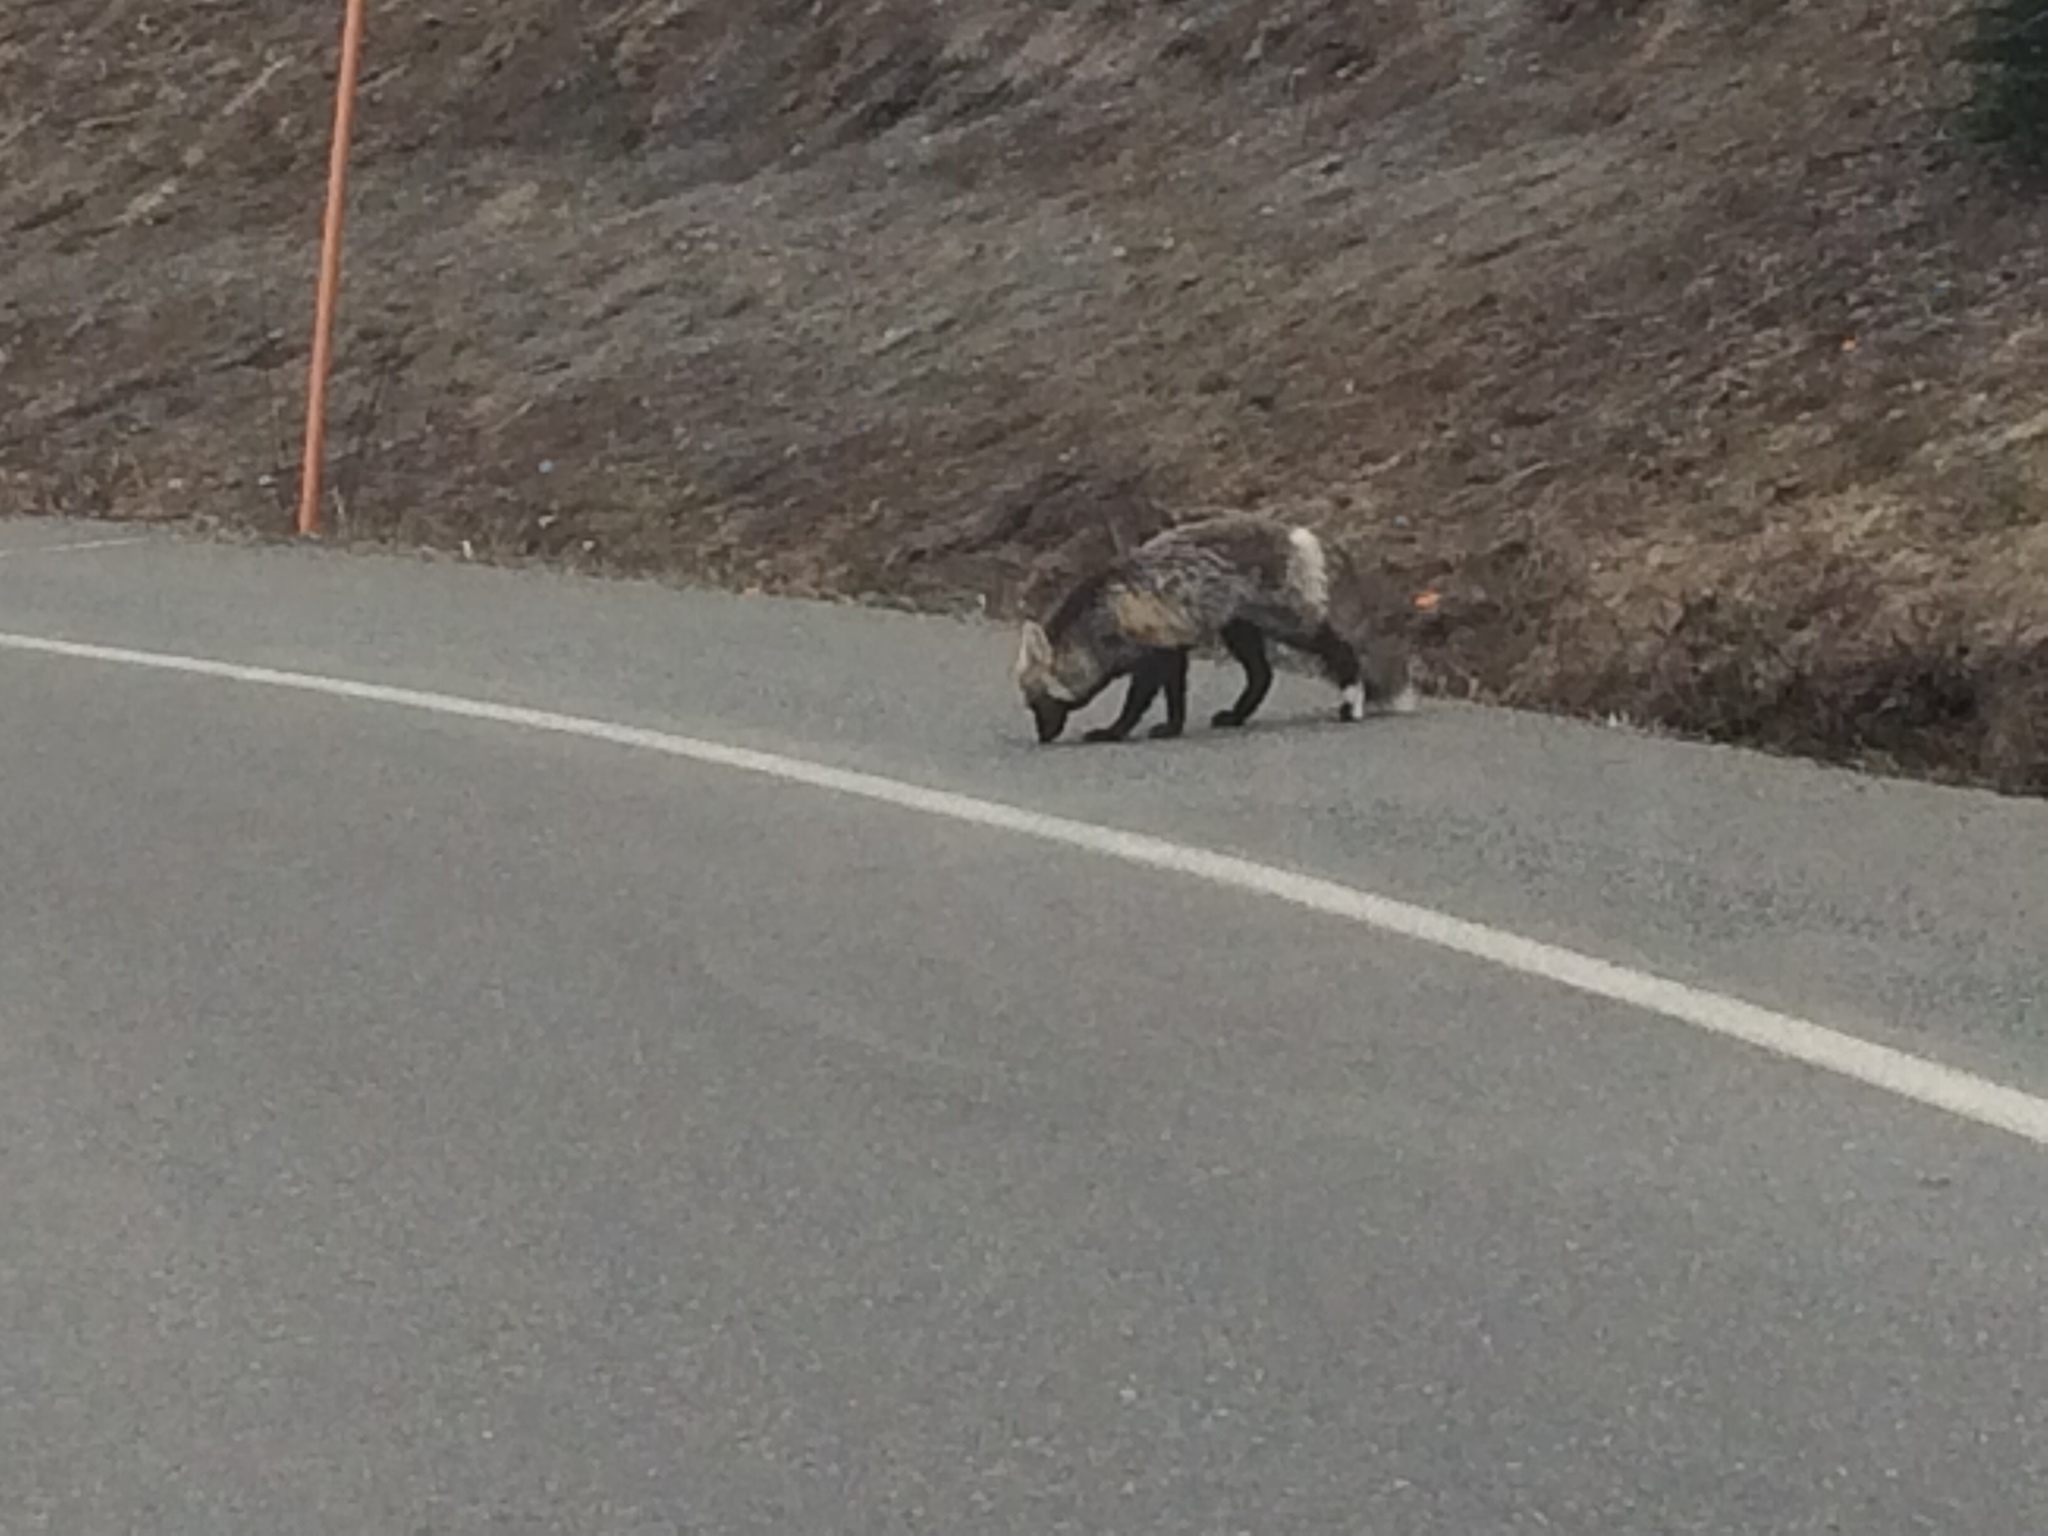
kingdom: Animalia
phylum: Chordata
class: Mammalia
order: Carnivora
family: Canidae
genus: Vulpes
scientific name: Vulpes vulpes
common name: Red fox
